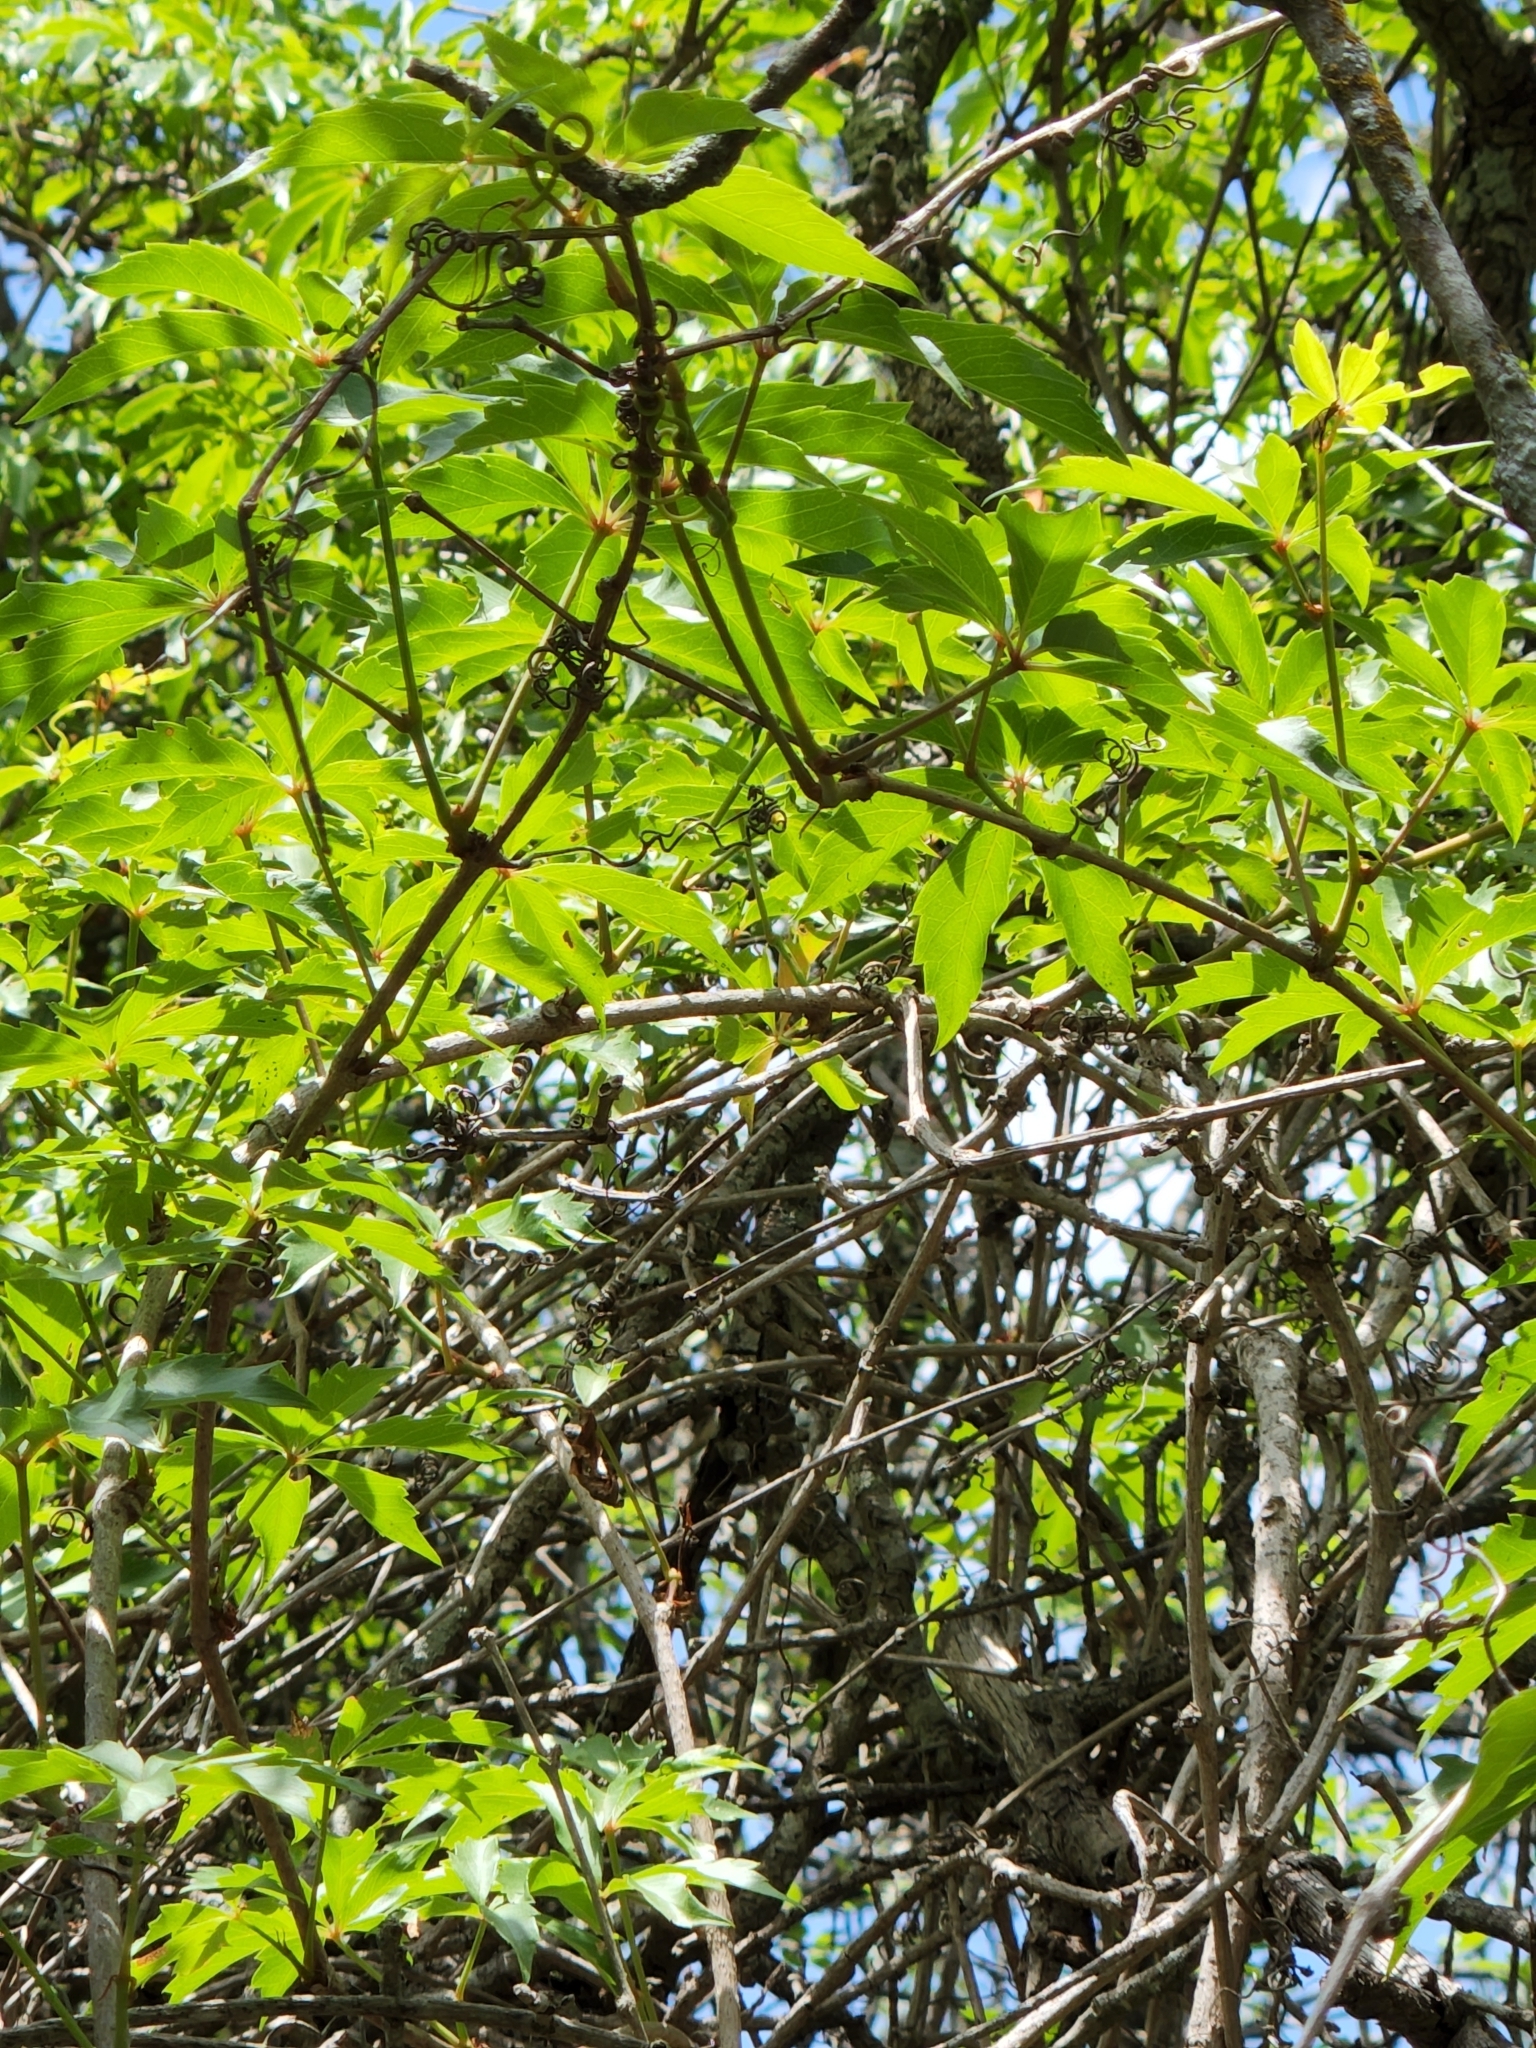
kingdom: Plantae
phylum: Tracheophyta
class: Magnoliopsida
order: Vitales
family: Vitaceae
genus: Parthenocissus
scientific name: Parthenocissus heptaphylla
